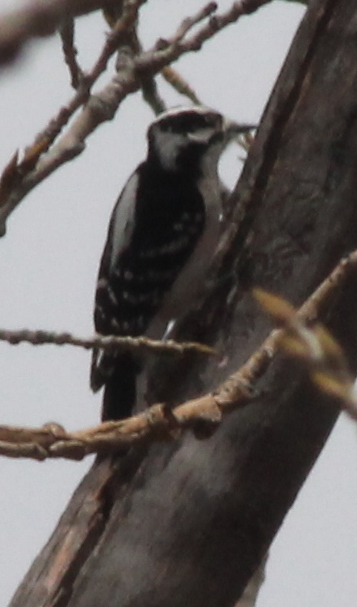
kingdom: Animalia
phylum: Chordata
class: Aves
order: Piciformes
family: Picidae
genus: Dryobates
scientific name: Dryobates pubescens
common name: Downy woodpecker
